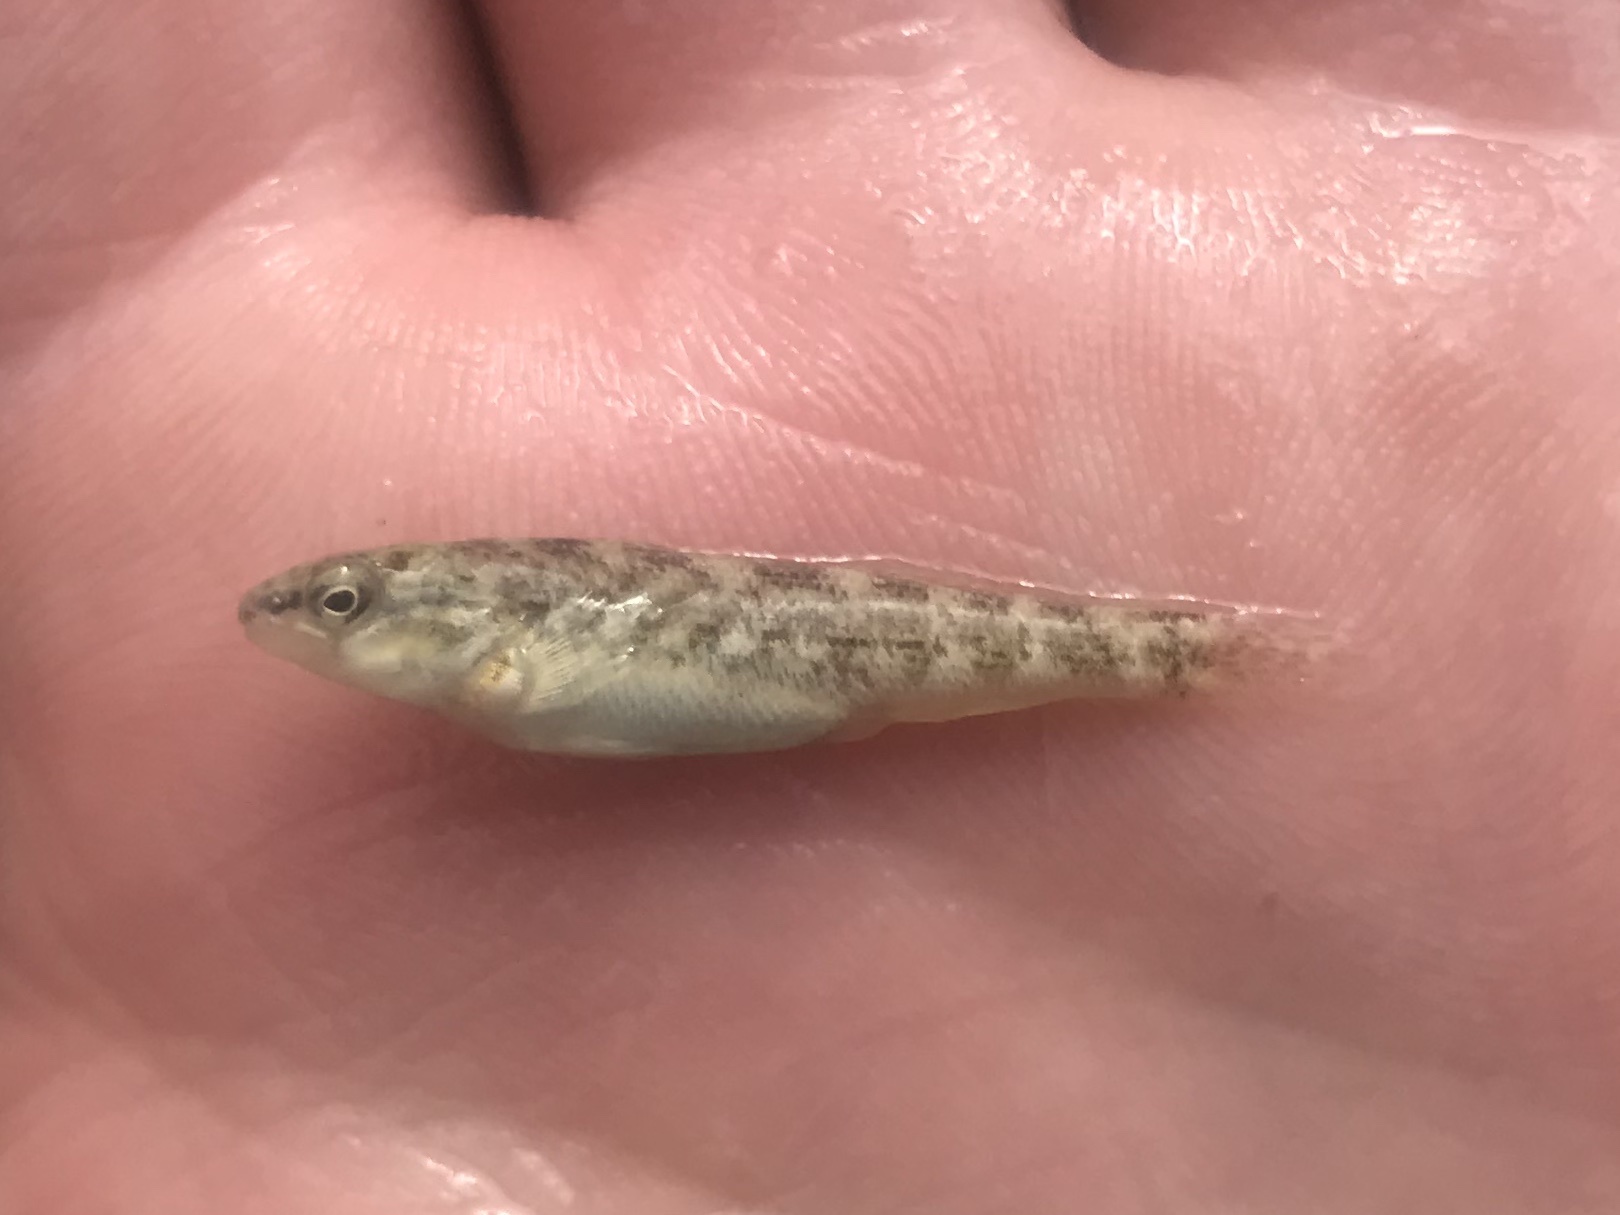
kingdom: Animalia
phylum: Chordata
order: Perciformes
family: Percidae
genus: Etheostoma
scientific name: Etheostoma spectabile
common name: Orangethroat darter
